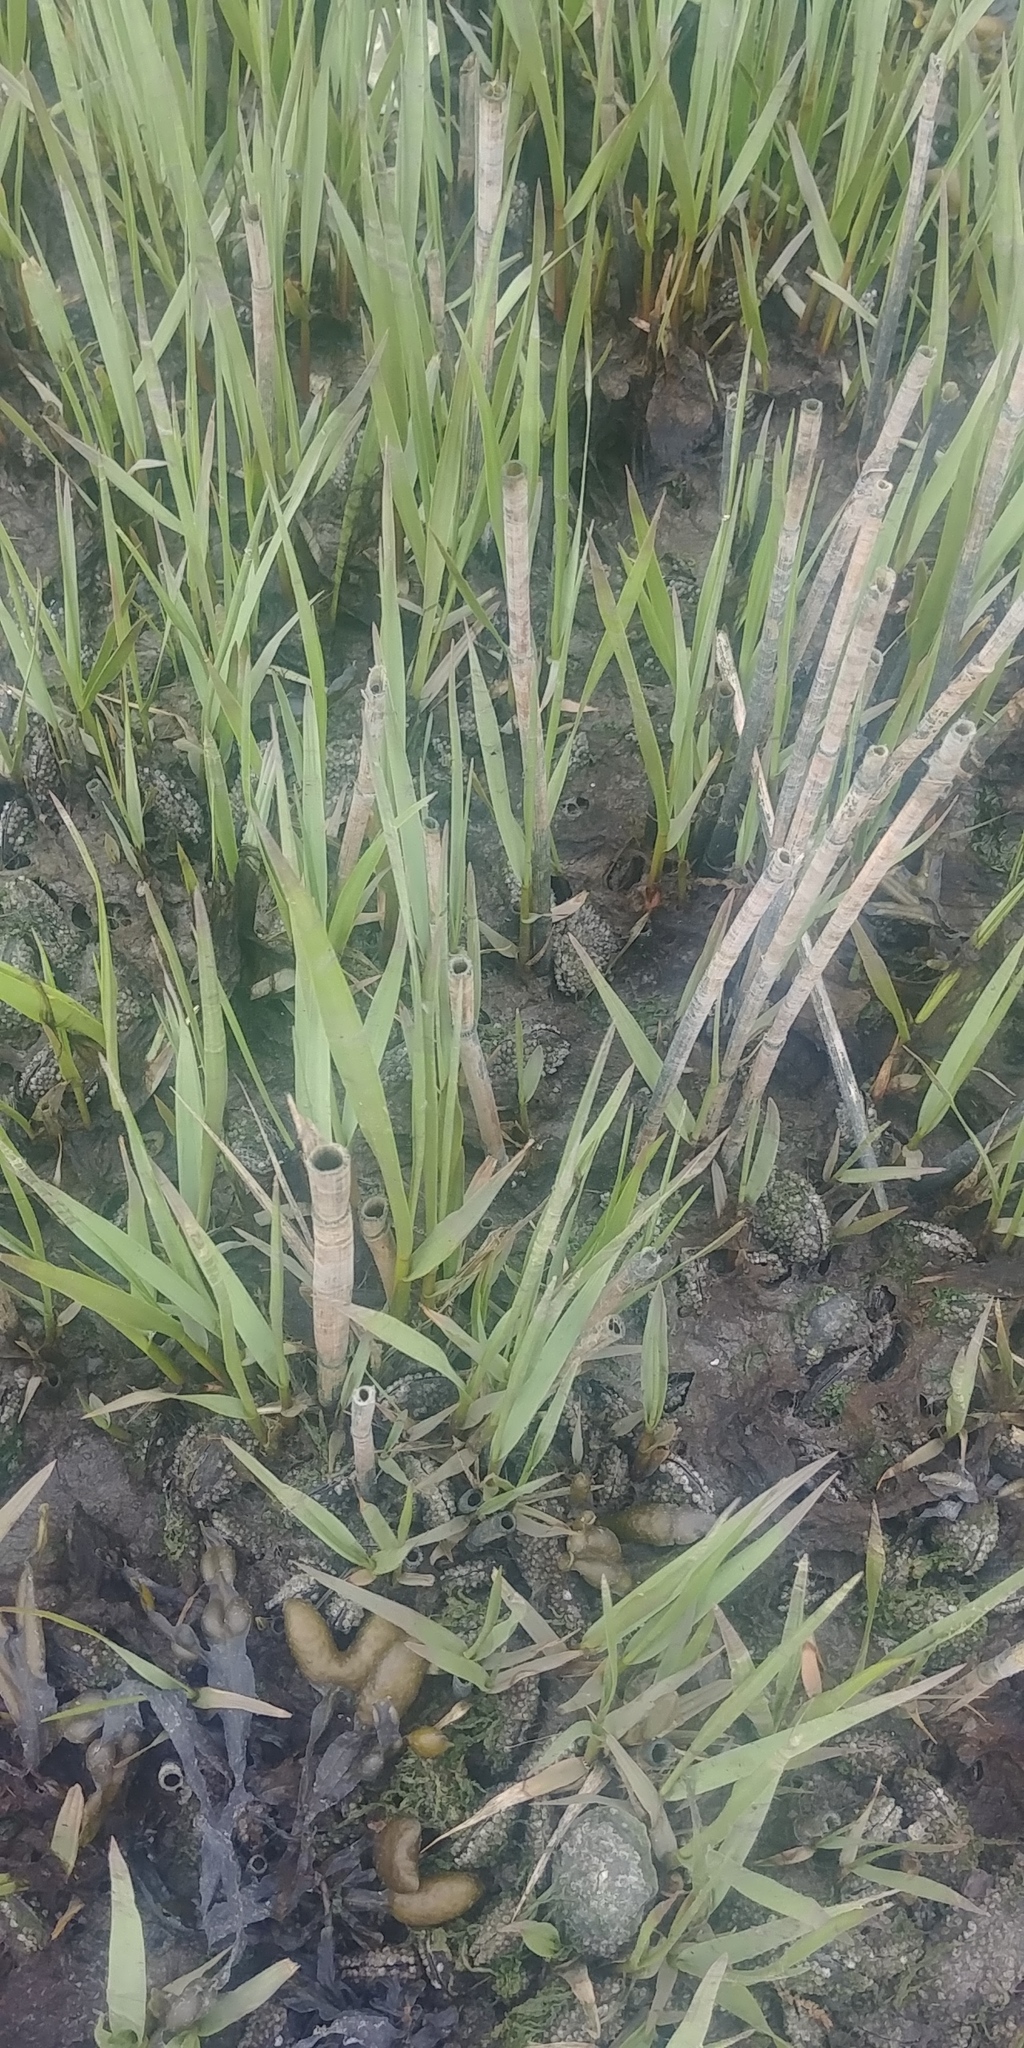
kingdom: Plantae
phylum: Tracheophyta
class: Liliopsida
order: Poales
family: Poaceae
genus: Sporobolus
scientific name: Sporobolus alterniflorus
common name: Atlantic cordgrass
